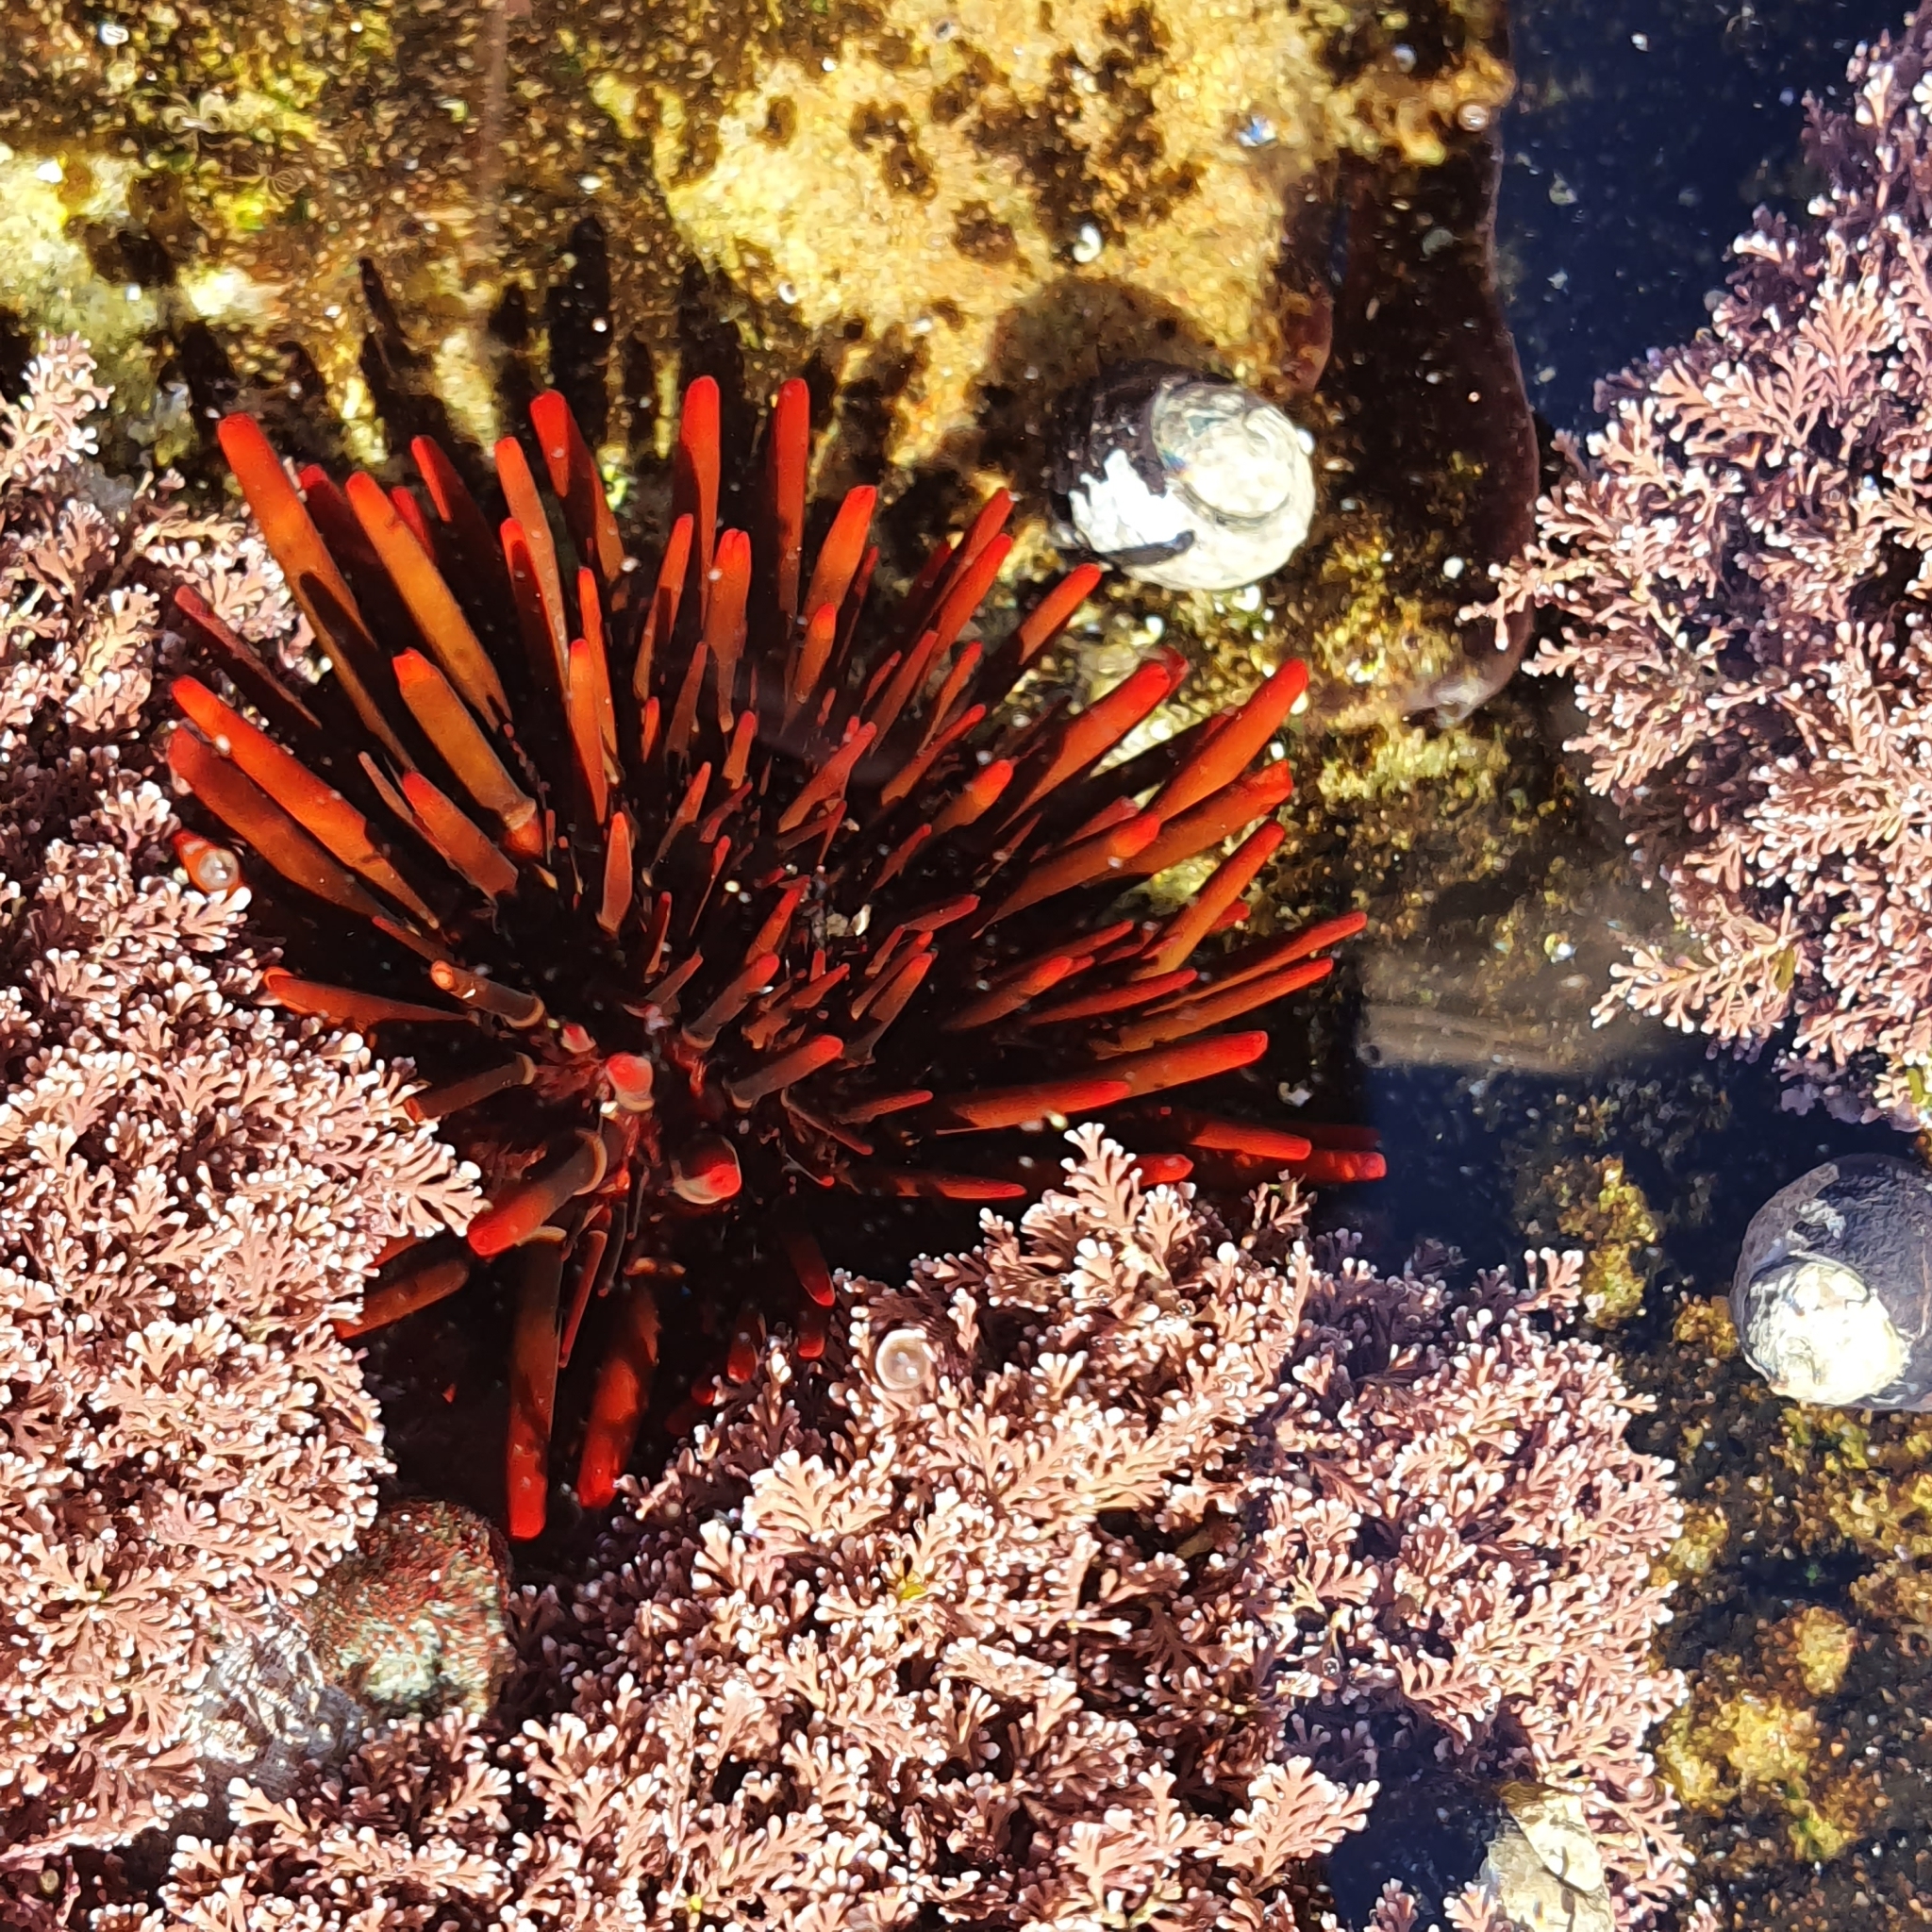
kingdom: Animalia
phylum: Echinodermata
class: Echinoidea
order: Camarodonta
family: Echinometridae
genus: Heliocidaris
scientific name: Heliocidaris tuberculata
